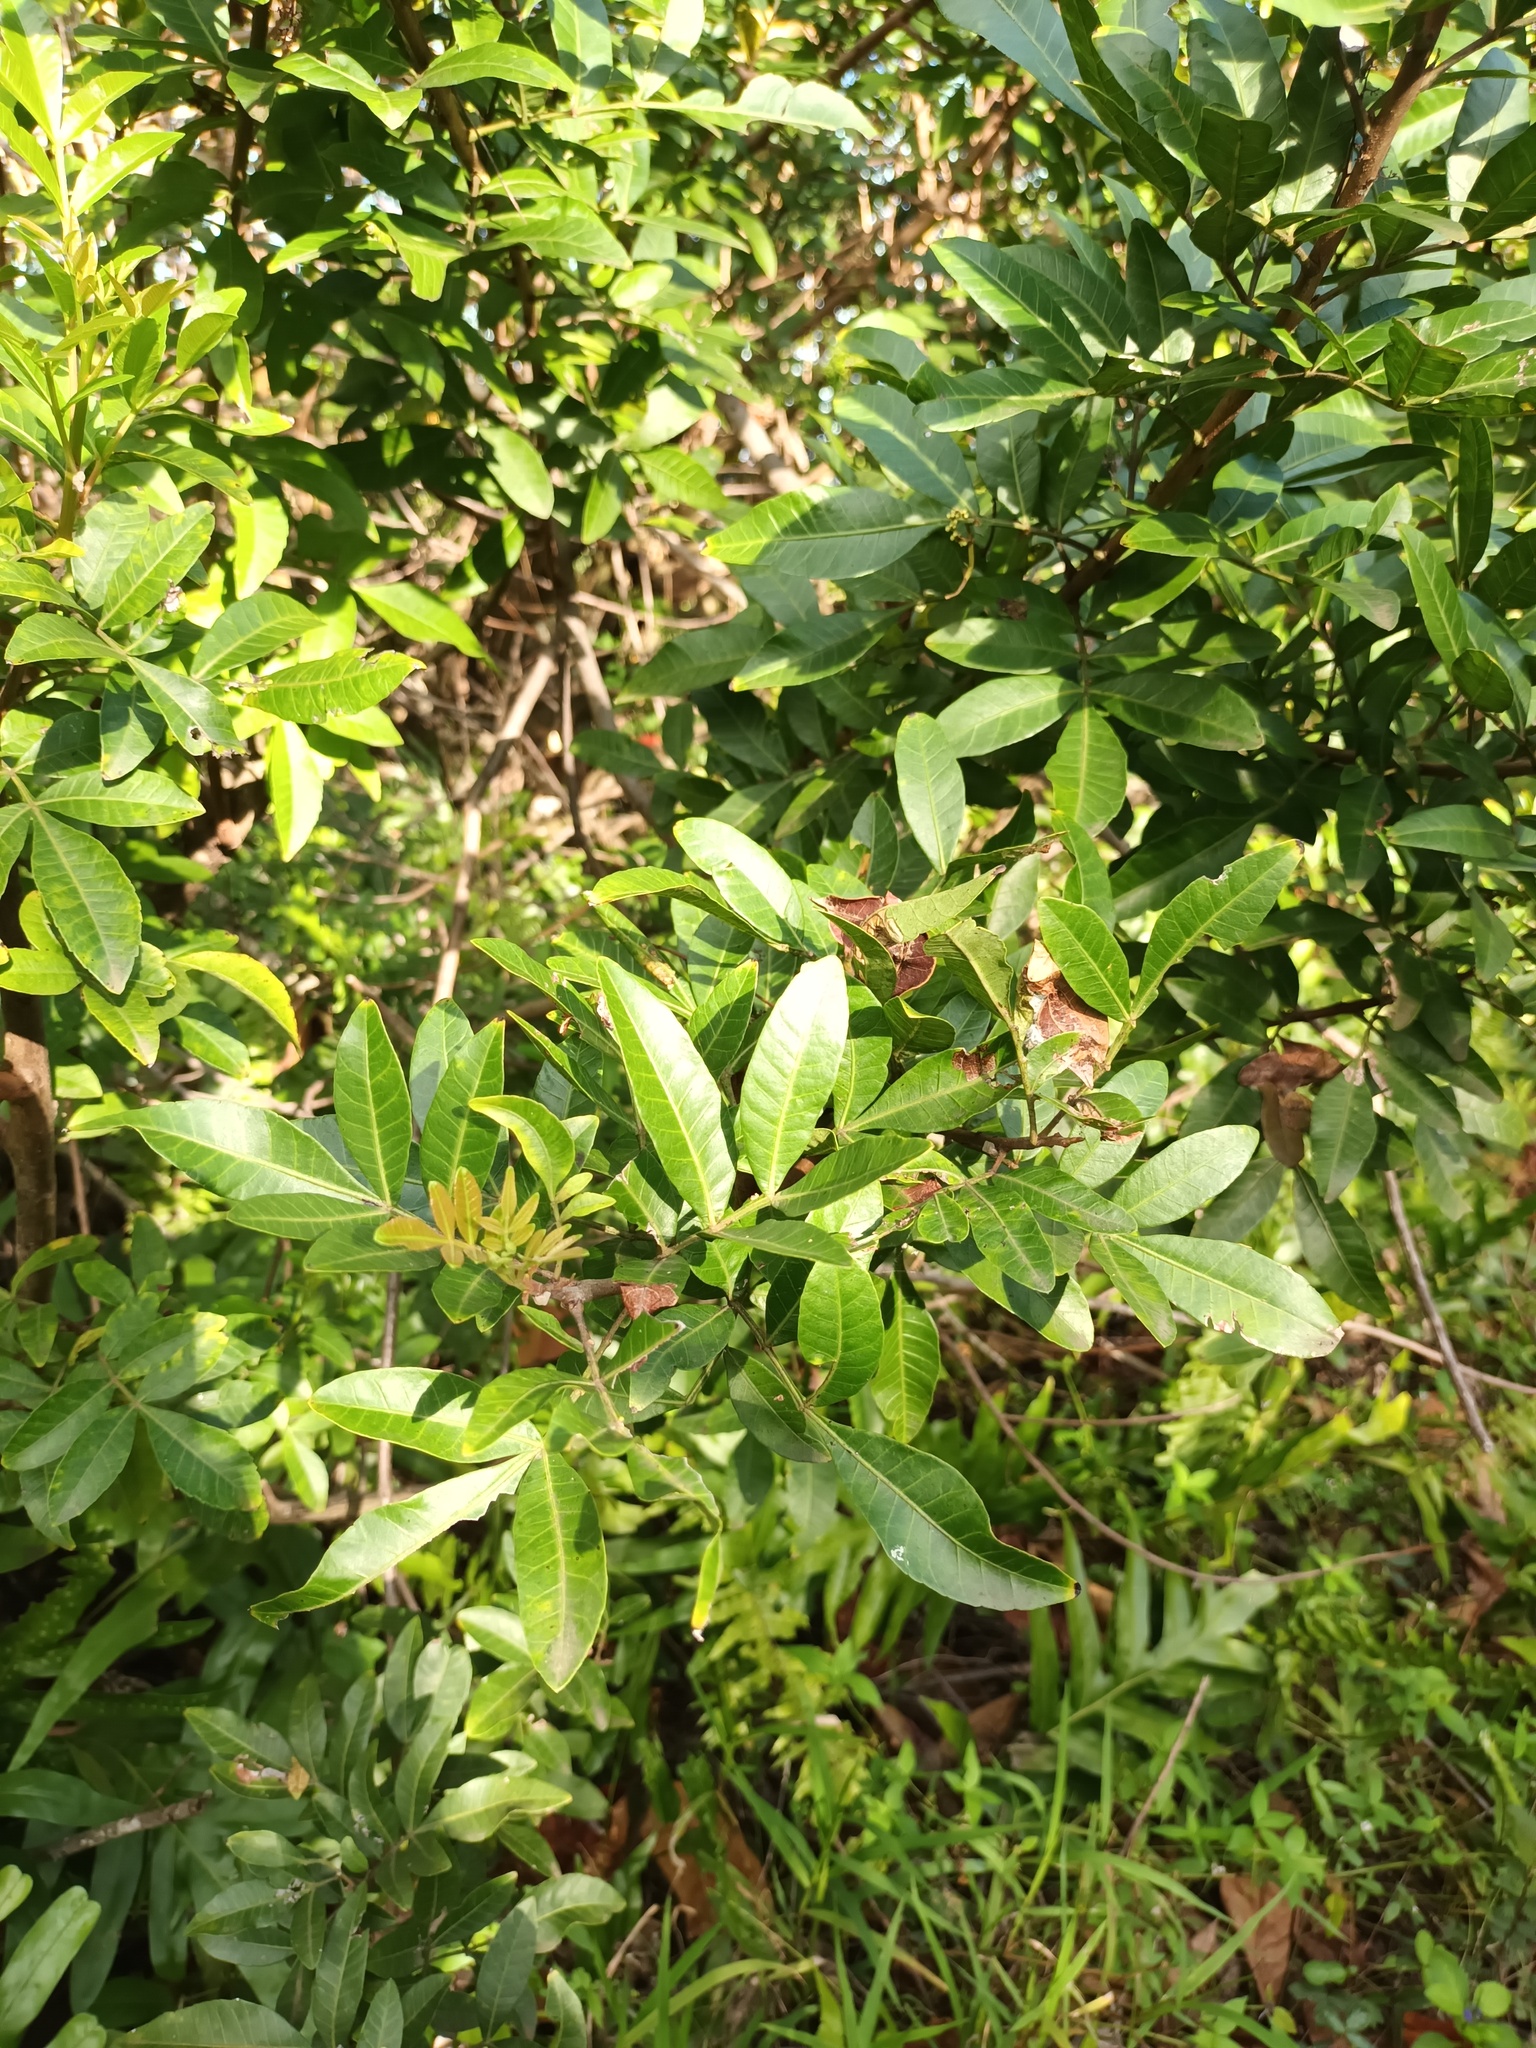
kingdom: Plantae
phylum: Tracheophyta
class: Magnoliopsida
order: Sapindales
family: Anacardiaceae
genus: Schinus
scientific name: Schinus terebinthifolia
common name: Brazilian peppertree
